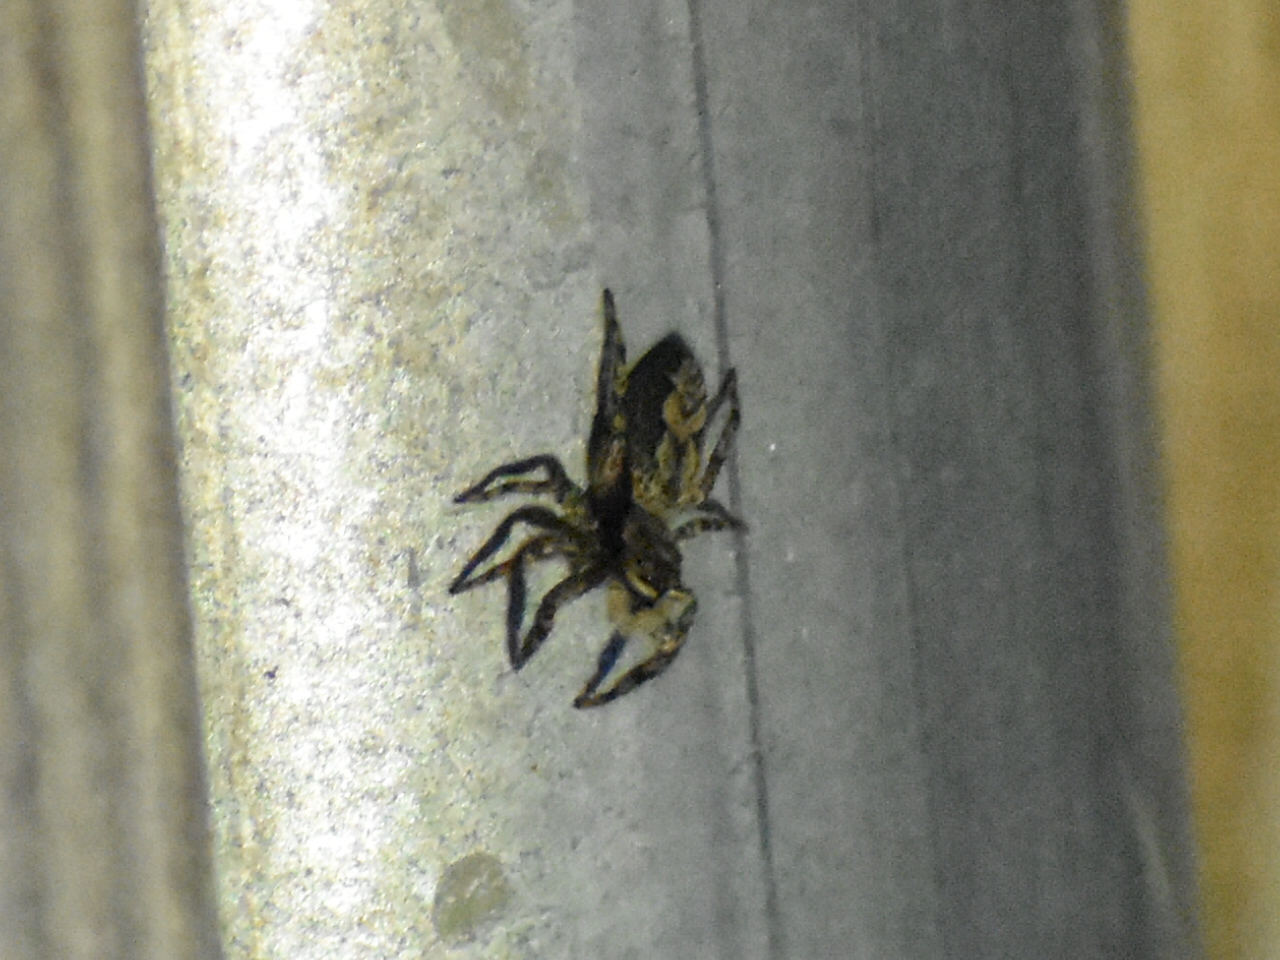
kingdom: Animalia
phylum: Arthropoda
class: Arachnida
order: Araneae
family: Salticidae
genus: Platycryptus
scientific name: Platycryptus undatus
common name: Tan jumping spider
